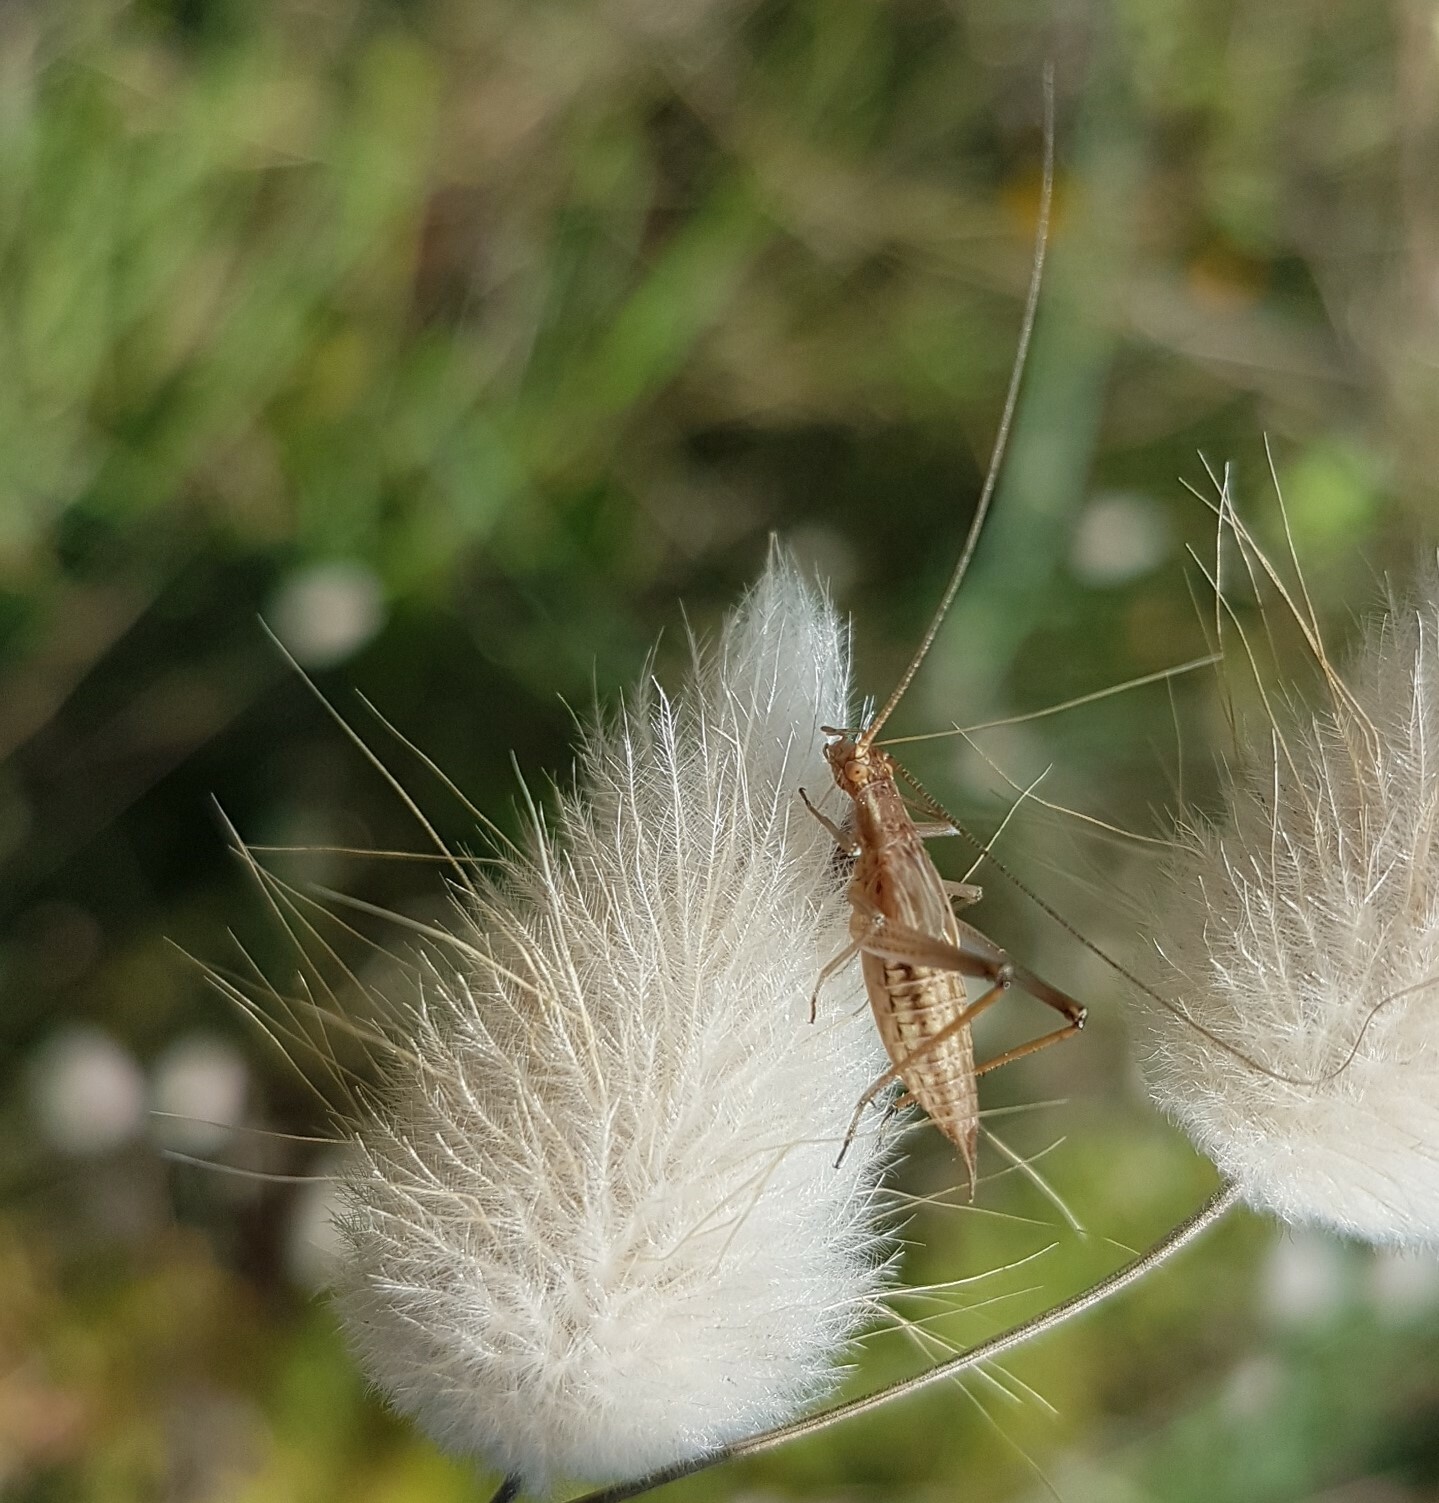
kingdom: Animalia
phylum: Arthropoda
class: Insecta
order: Orthoptera
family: Gryllidae
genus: Oecanthus
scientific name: Oecanthus pellucens
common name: Tree-cricket
